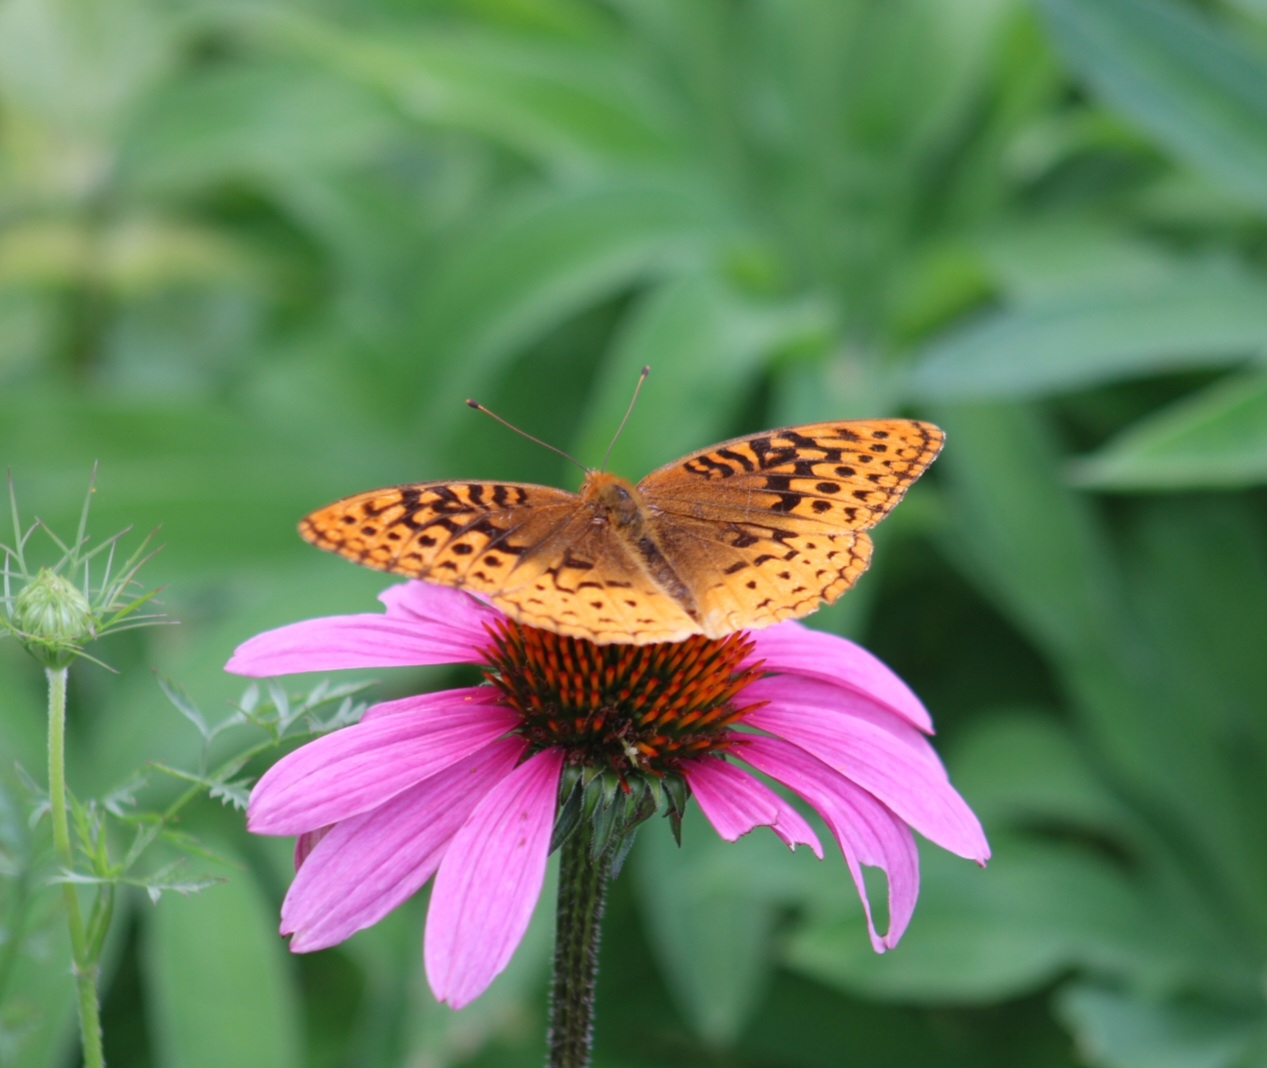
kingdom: Animalia
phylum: Arthropoda
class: Insecta
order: Lepidoptera
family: Nymphalidae
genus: Speyeria
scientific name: Speyeria cybele
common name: Great spangled fritillary
